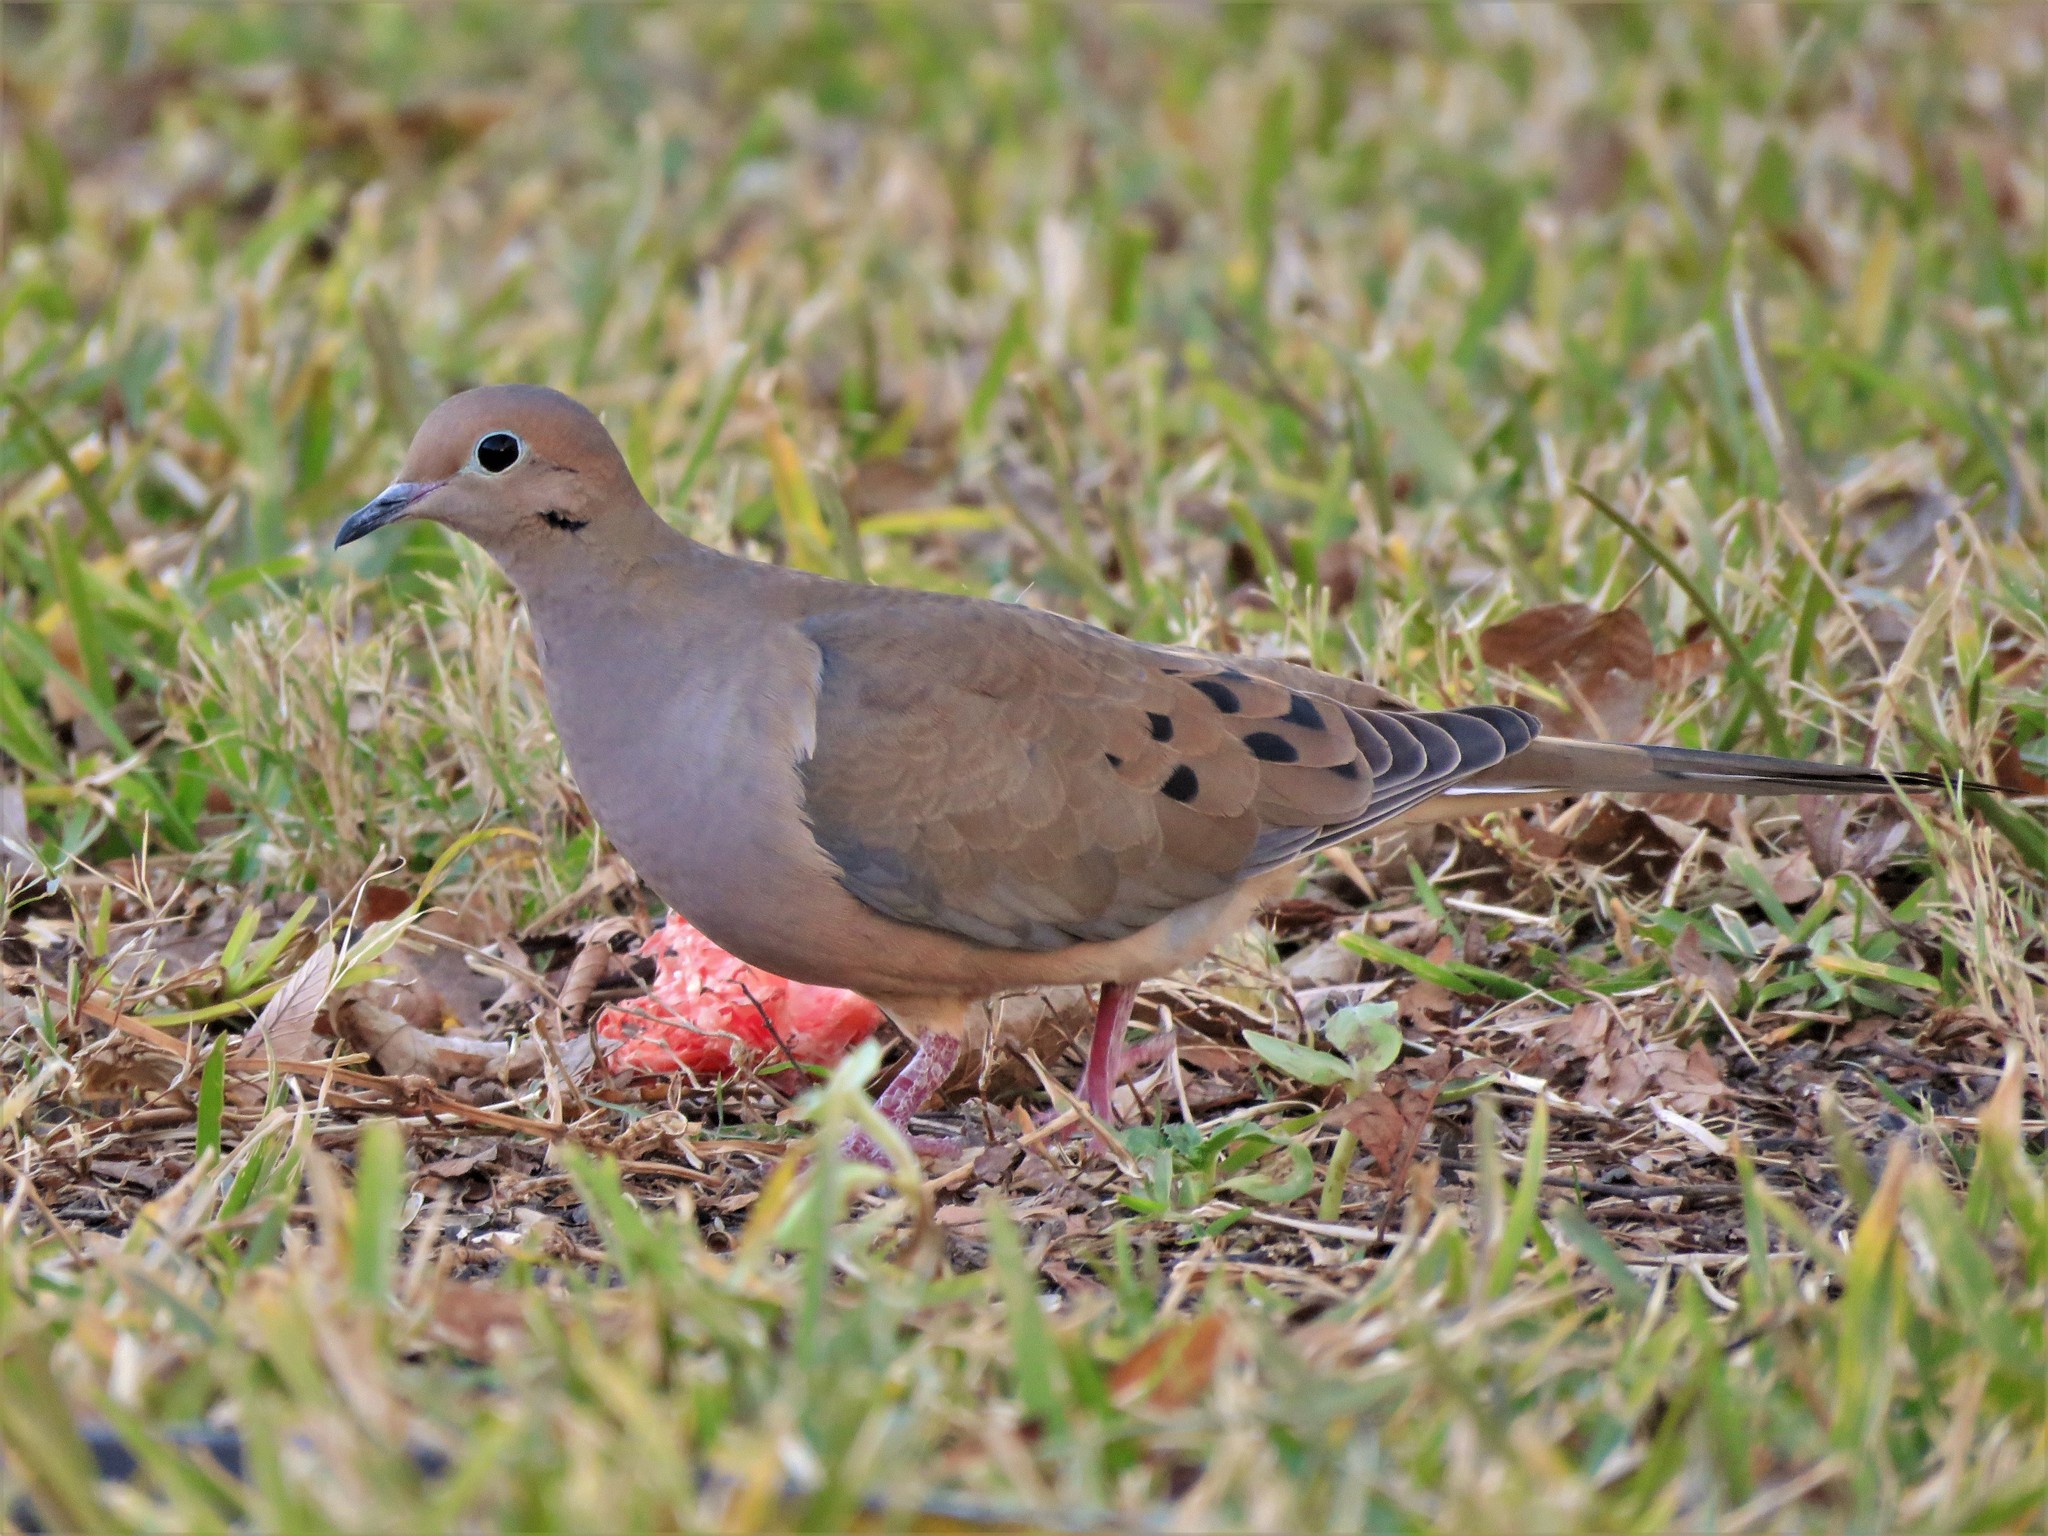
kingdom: Animalia
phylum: Chordata
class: Aves
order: Columbiformes
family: Columbidae
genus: Zenaida
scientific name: Zenaida macroura
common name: Mourning dove
